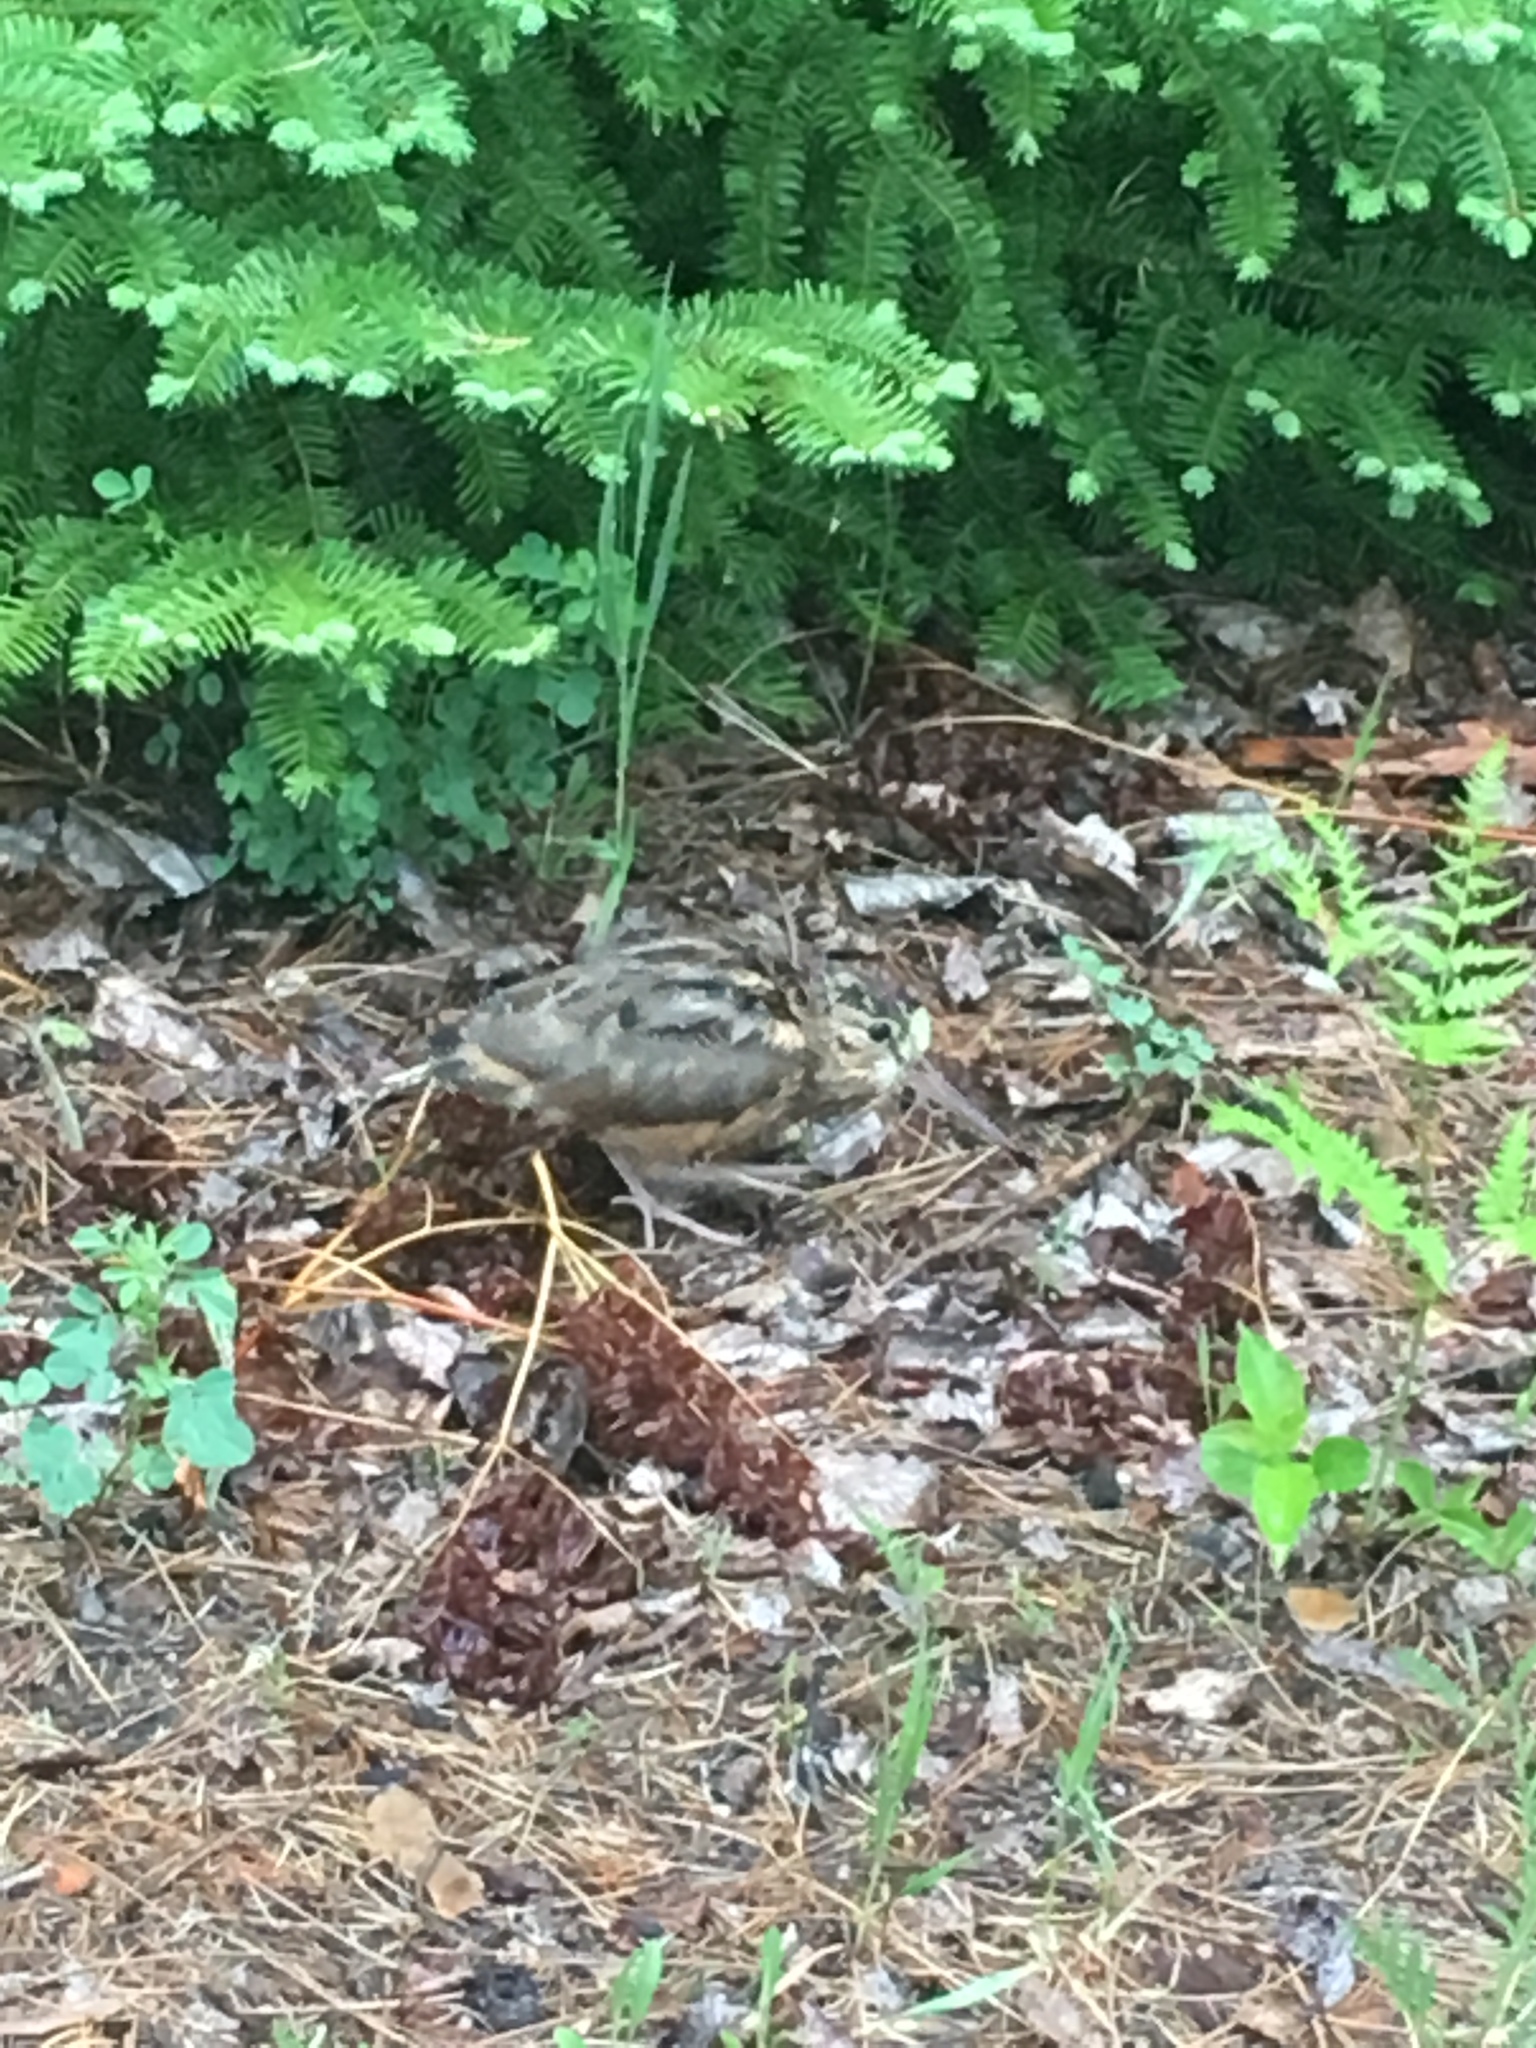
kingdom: Animalia
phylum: Chordata
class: Aves
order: Charadriiformes
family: Scolopacidae
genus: Scolopax
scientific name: Scolopax minor
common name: American woodcock
